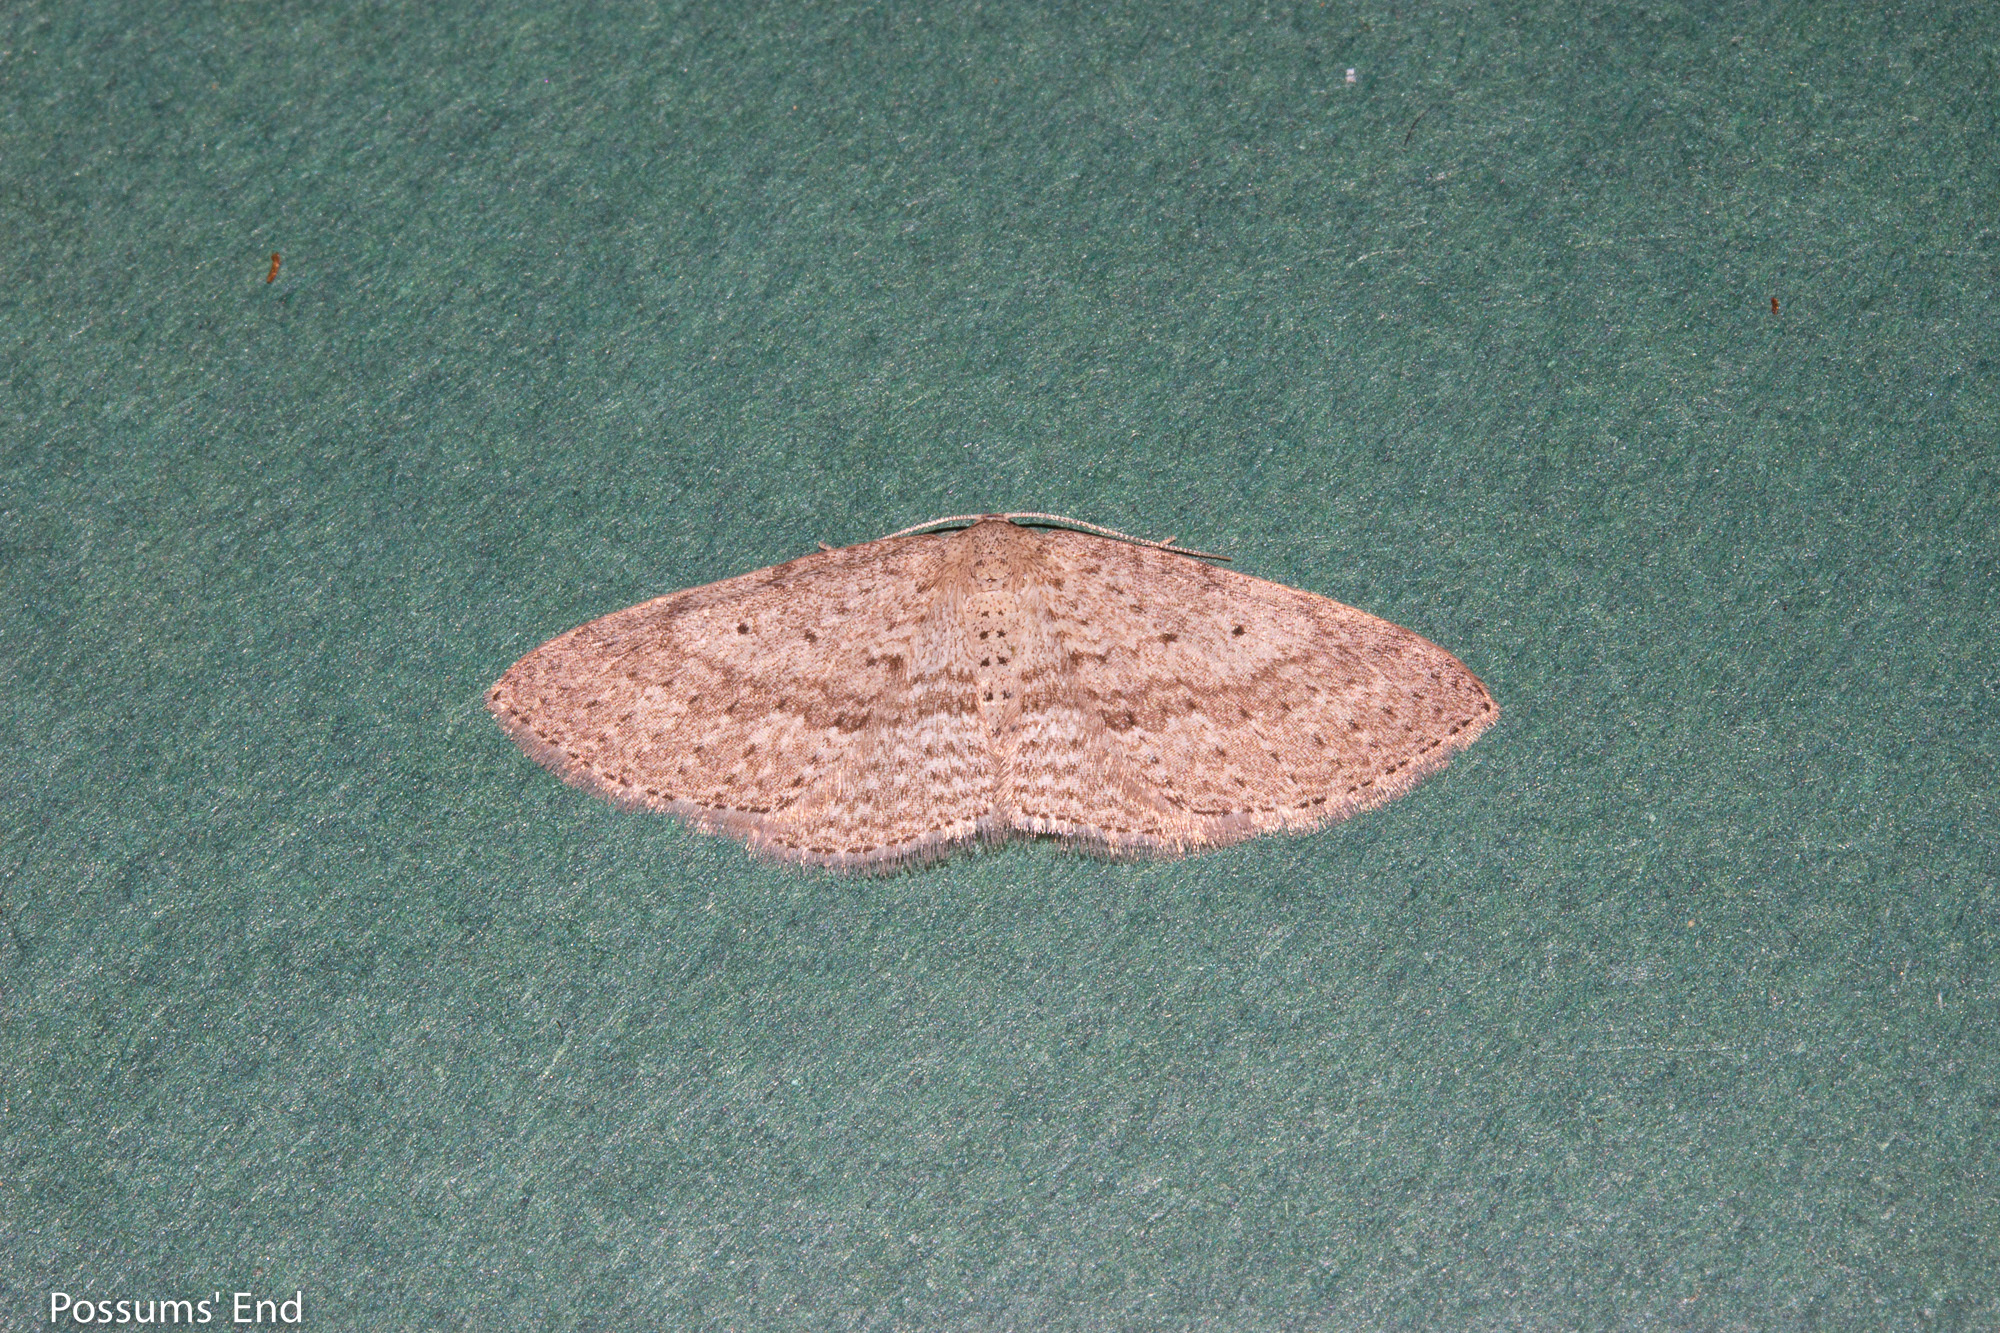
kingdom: Animalia
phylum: Arthropoda
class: Insecta
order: Lepidoptera
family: Geometridae
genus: Poecilasthena
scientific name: Poecilasthena schistaria
